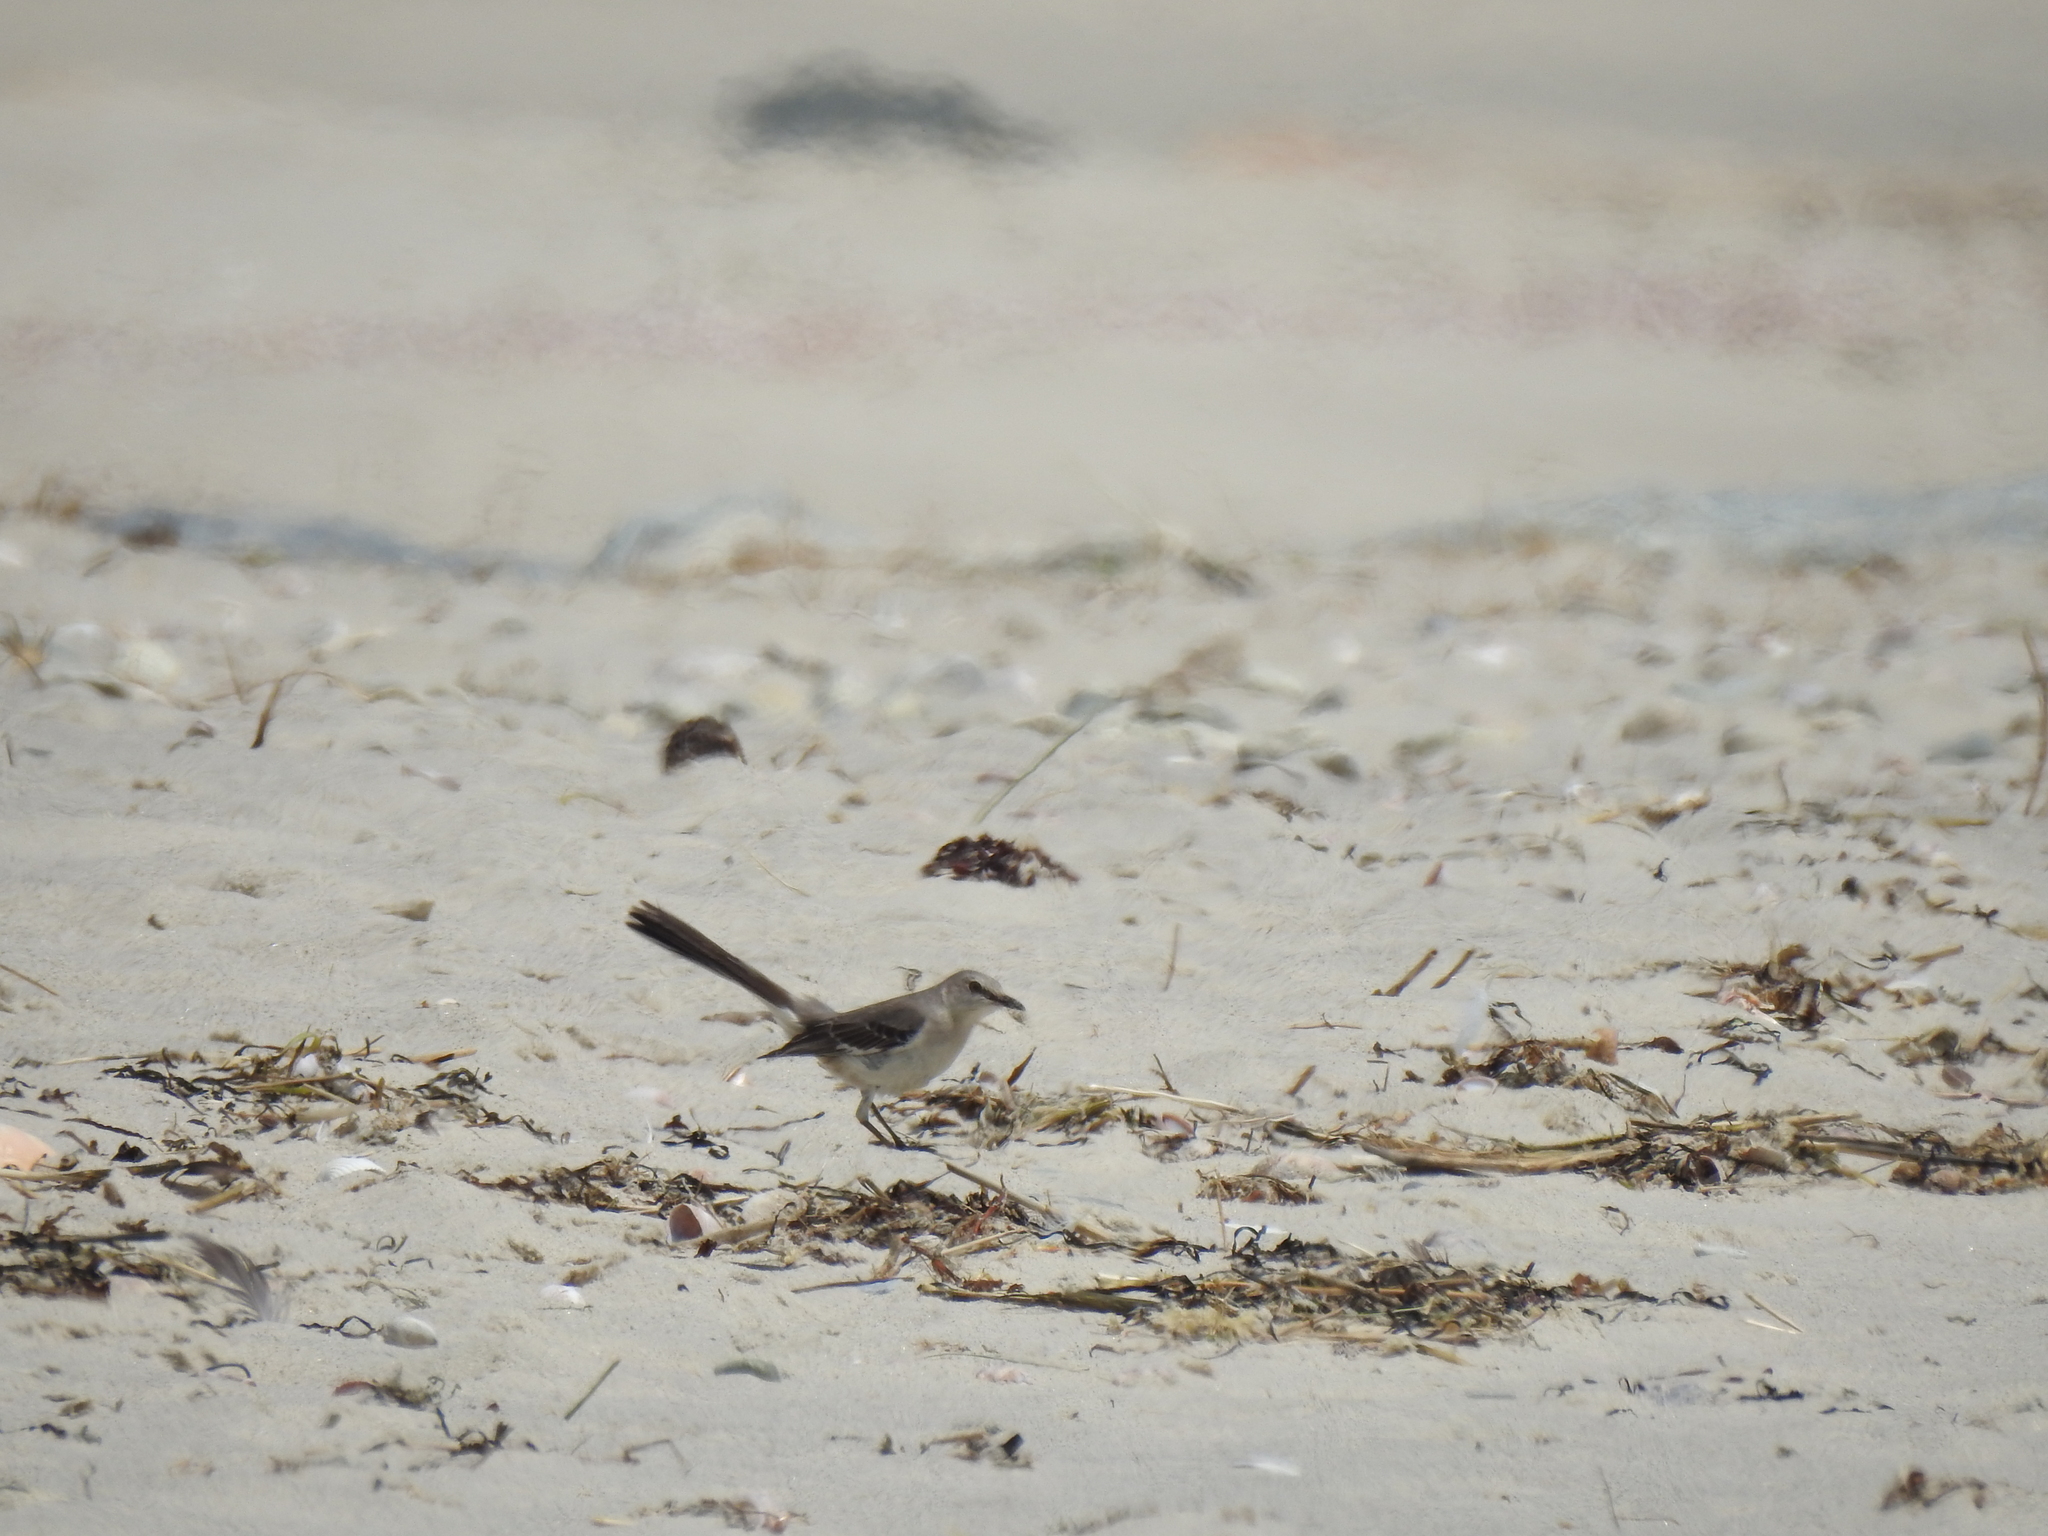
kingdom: Animalia
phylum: Chordata
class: Aves
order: Passeriformes
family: Mimidae
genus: Mimus
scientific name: Mimus polyglottos
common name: Northern mockingbird
